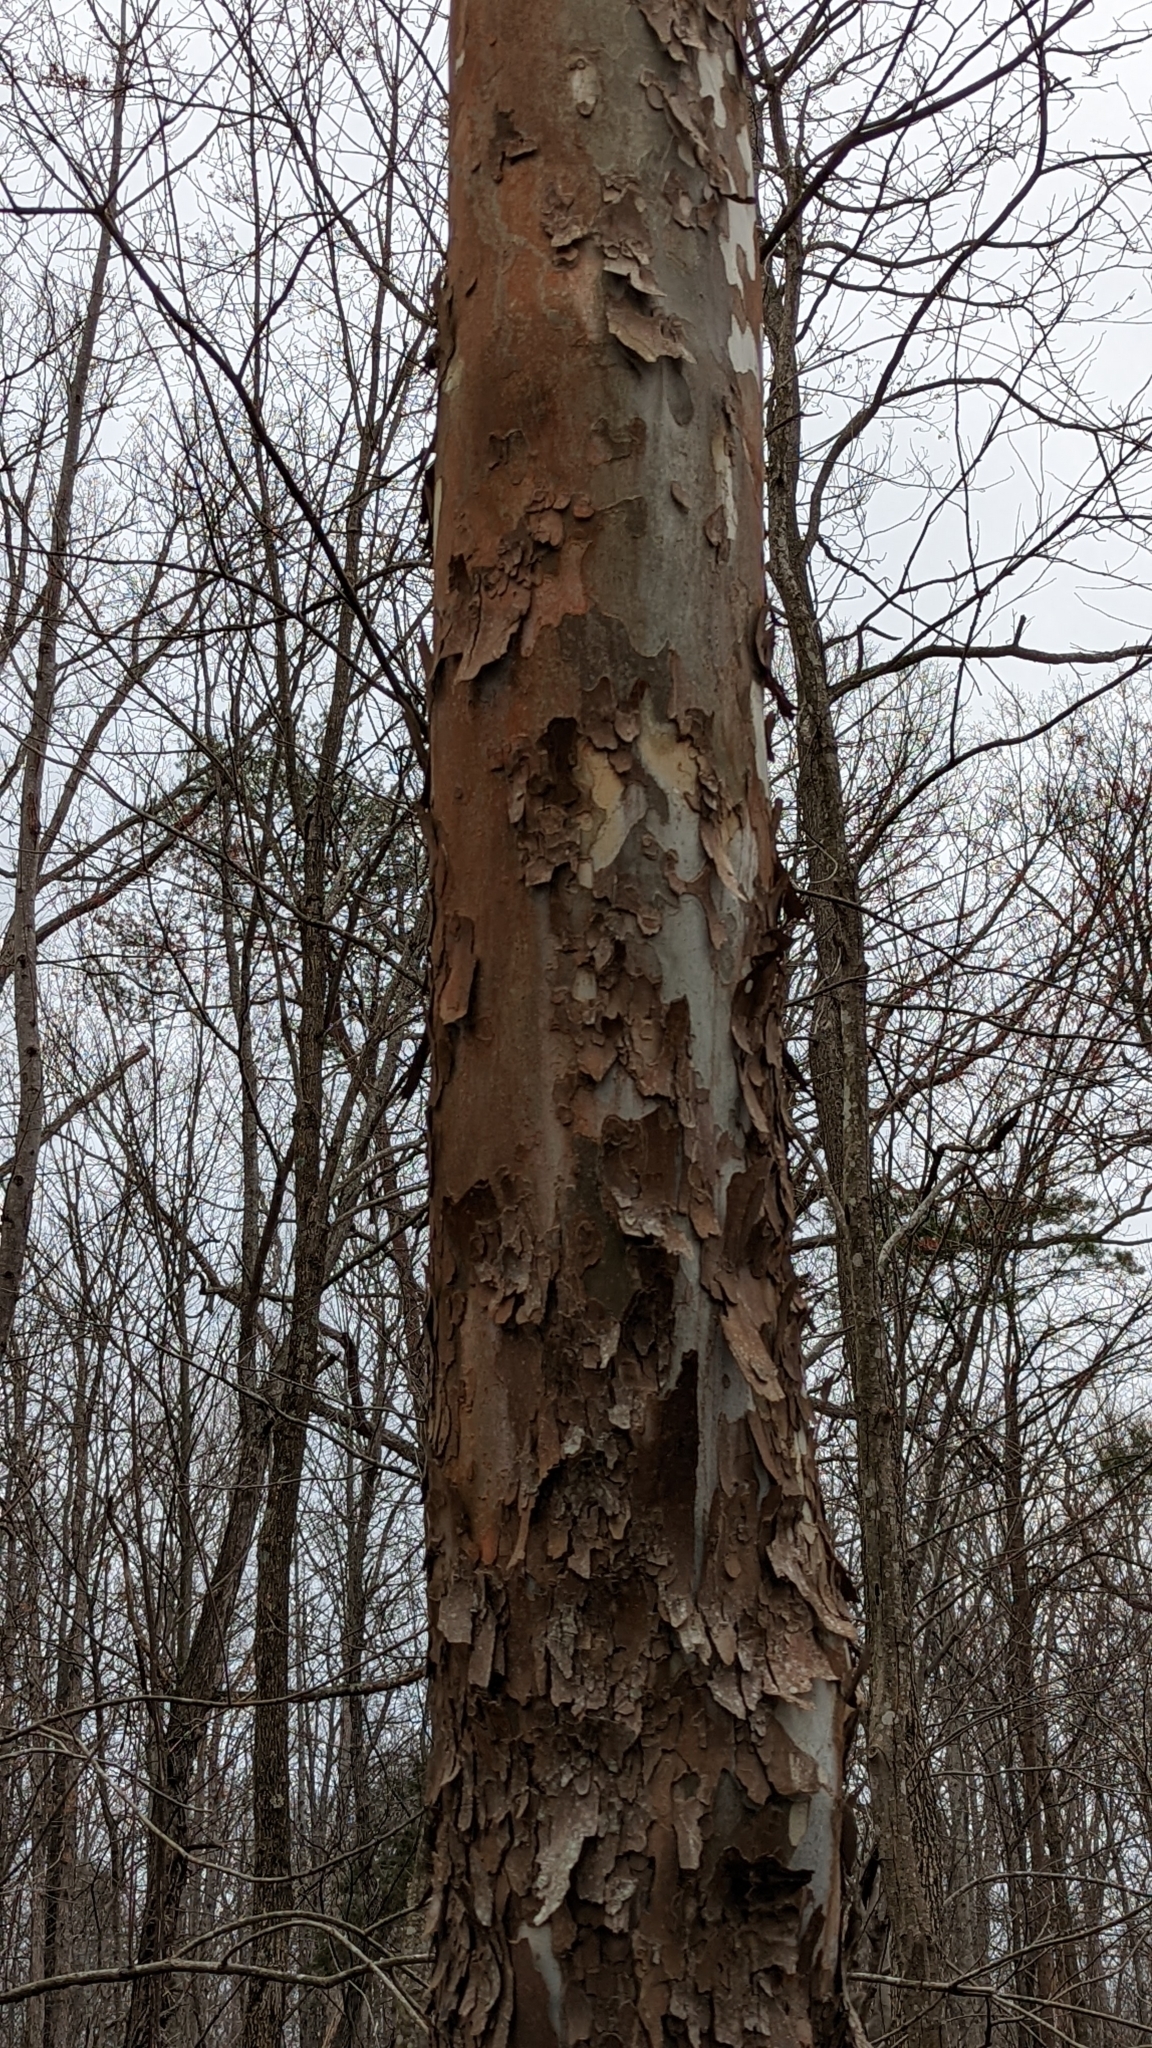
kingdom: Plantae
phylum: Tracheophyta
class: Magnoliopsida
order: Proteales
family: Platanaceae
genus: Platanus
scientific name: Platanus occidentalis
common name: American sycamore
